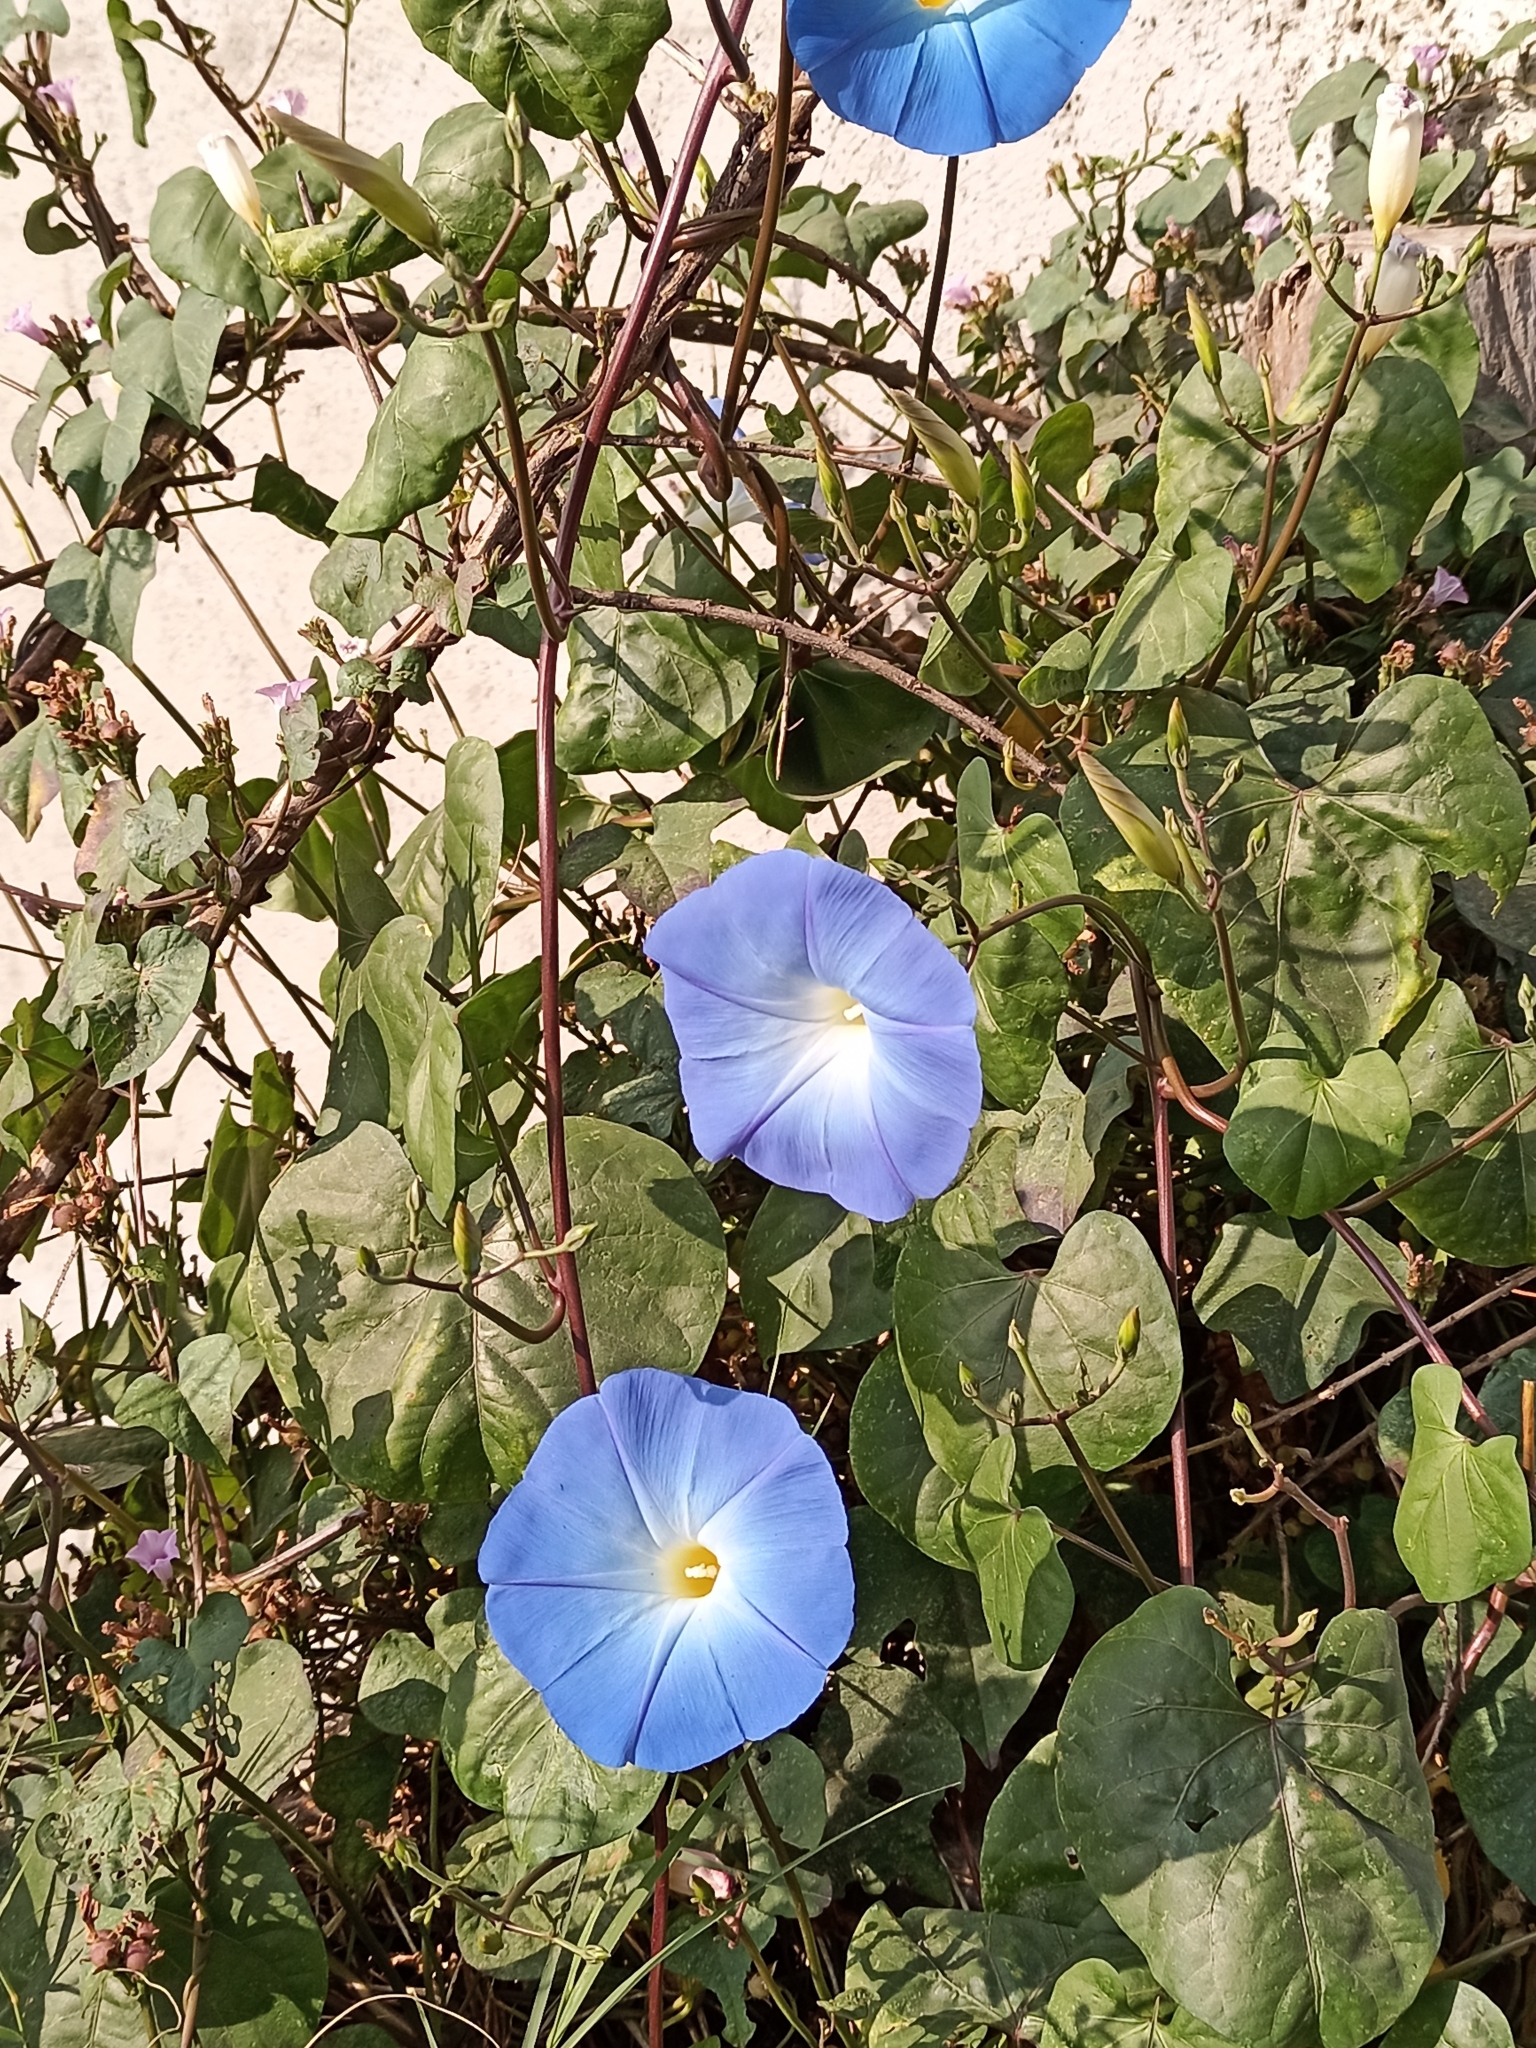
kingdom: Plantae
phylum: Tracheophyta
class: Magnoliopsida
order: Solanales
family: Convolvulaceae
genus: Ipomoea
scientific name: Ipomoea tricolor
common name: Morning-glory
